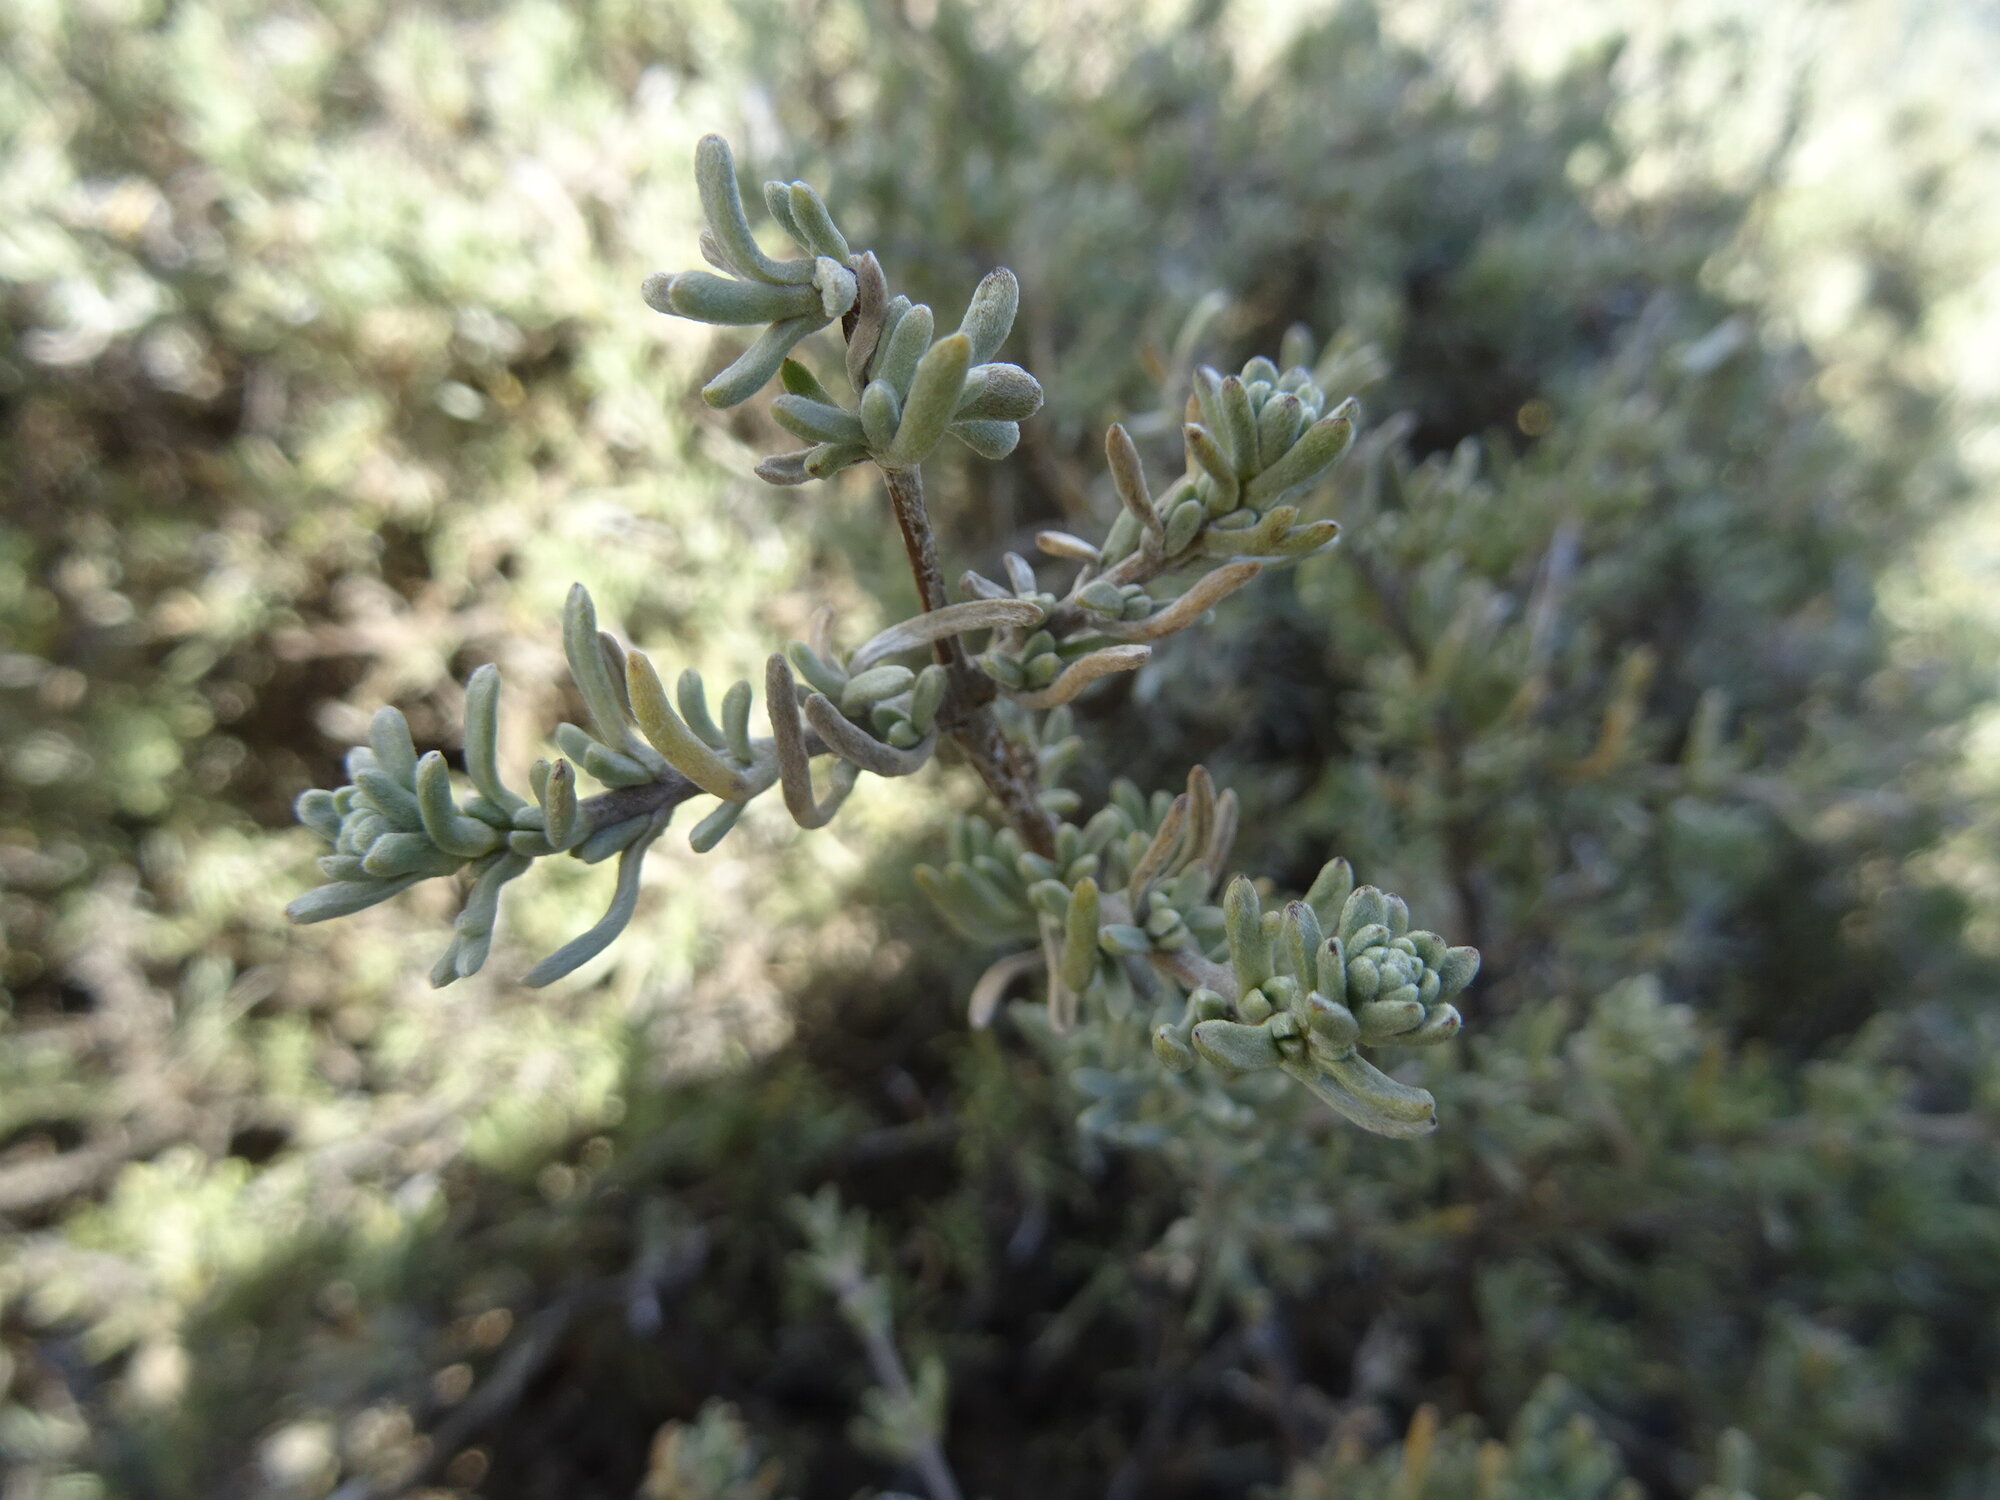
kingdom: Plantae
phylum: Tracheophyta
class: Magnoliopsida
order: Asterales
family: Asteraceae
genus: Eriocephalus
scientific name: Eriocephalus africanus
